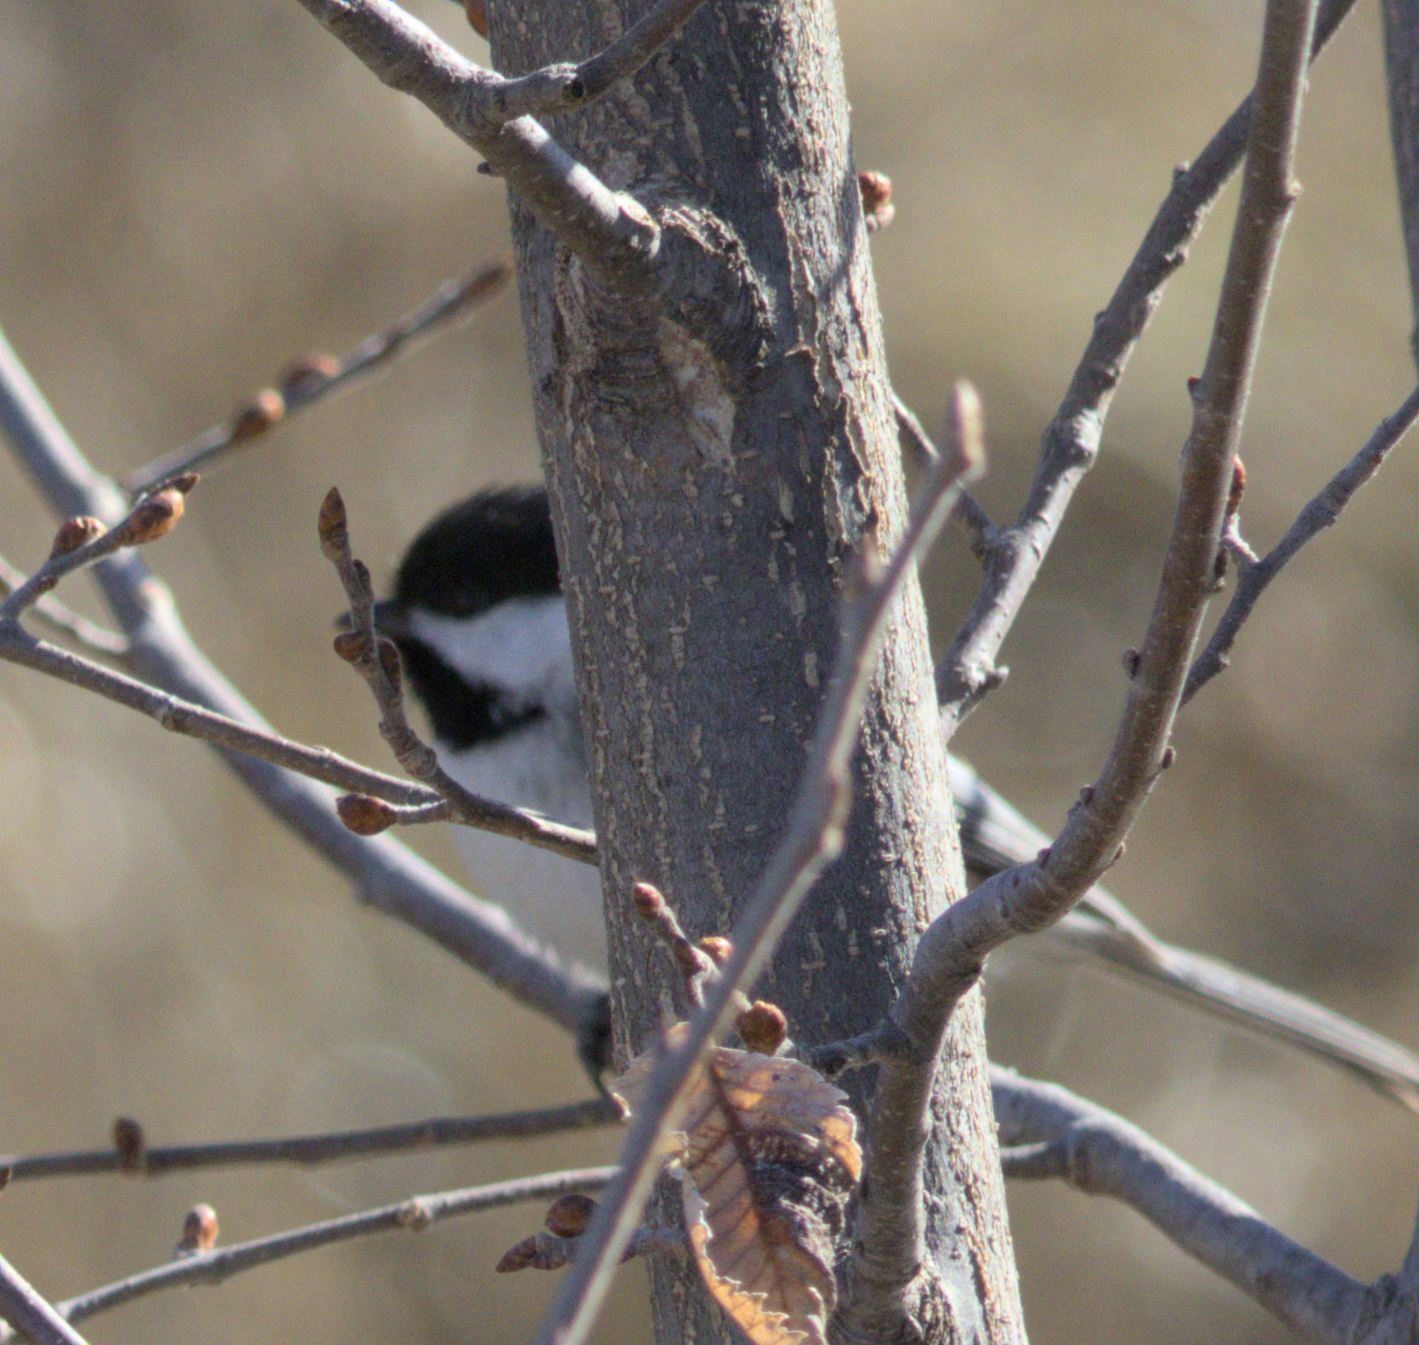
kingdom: Animalia
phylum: Chordata
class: Aves
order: Passeriformes
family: Paridae
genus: Poecile
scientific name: Poecile atricapillus
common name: Black-capped chickadee
